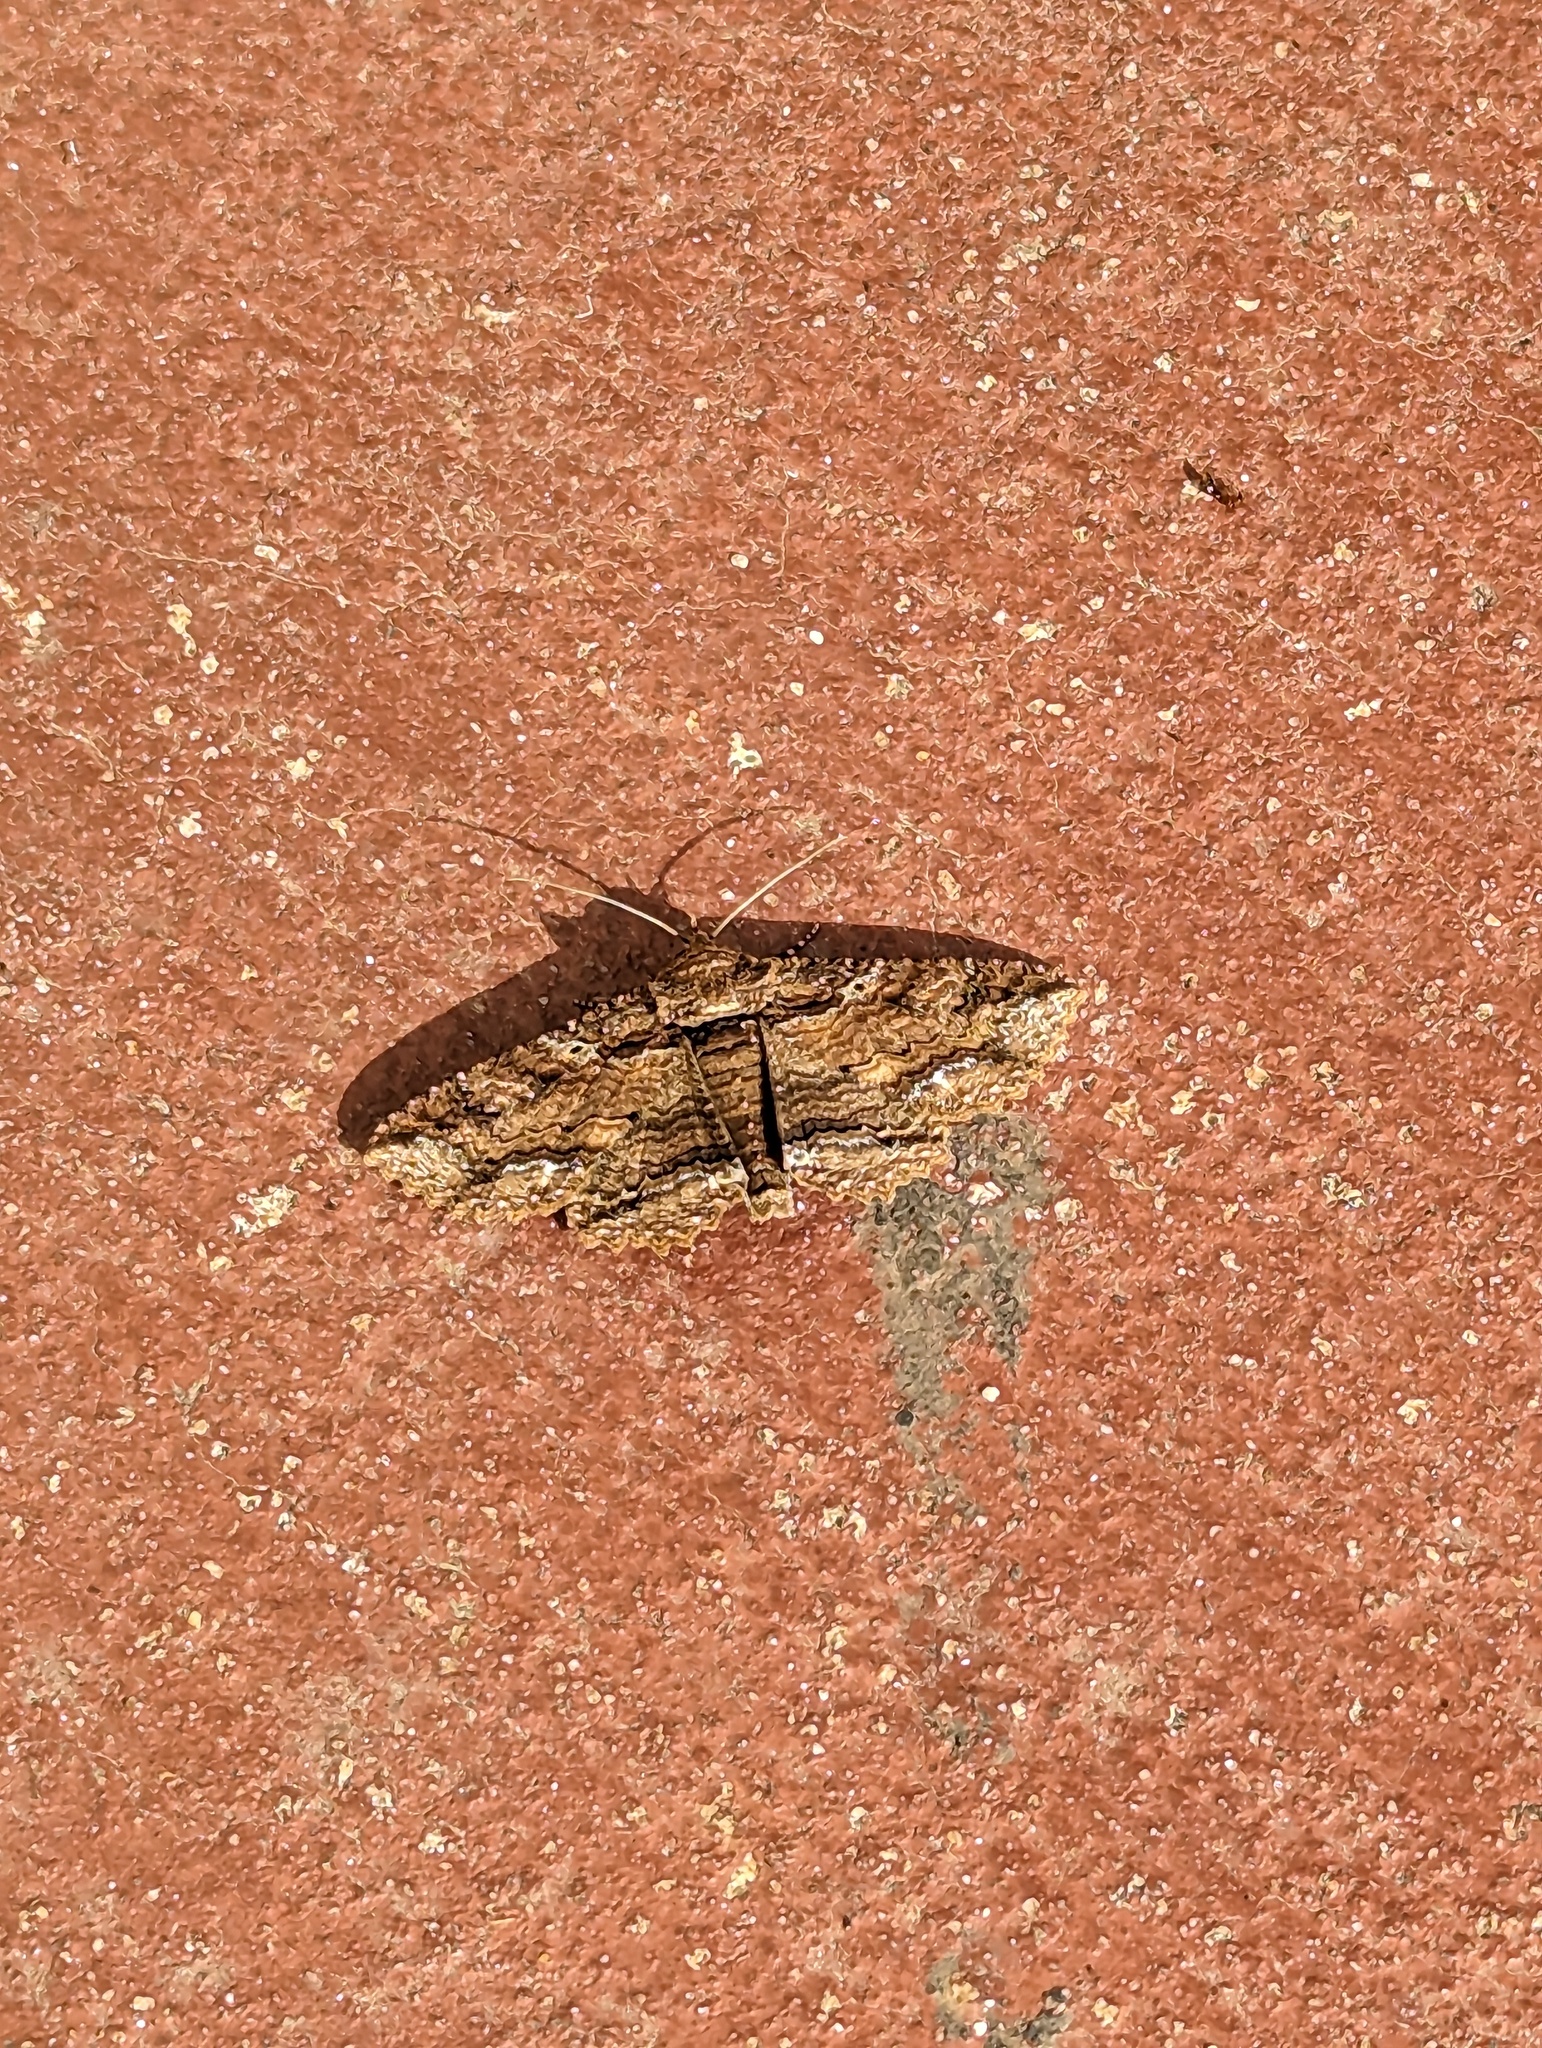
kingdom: Animalia
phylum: Arthropoda
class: Insecta
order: Lepidoptera
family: Erebidae
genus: Zale
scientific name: Zale lunata
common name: Lunate zale moth
